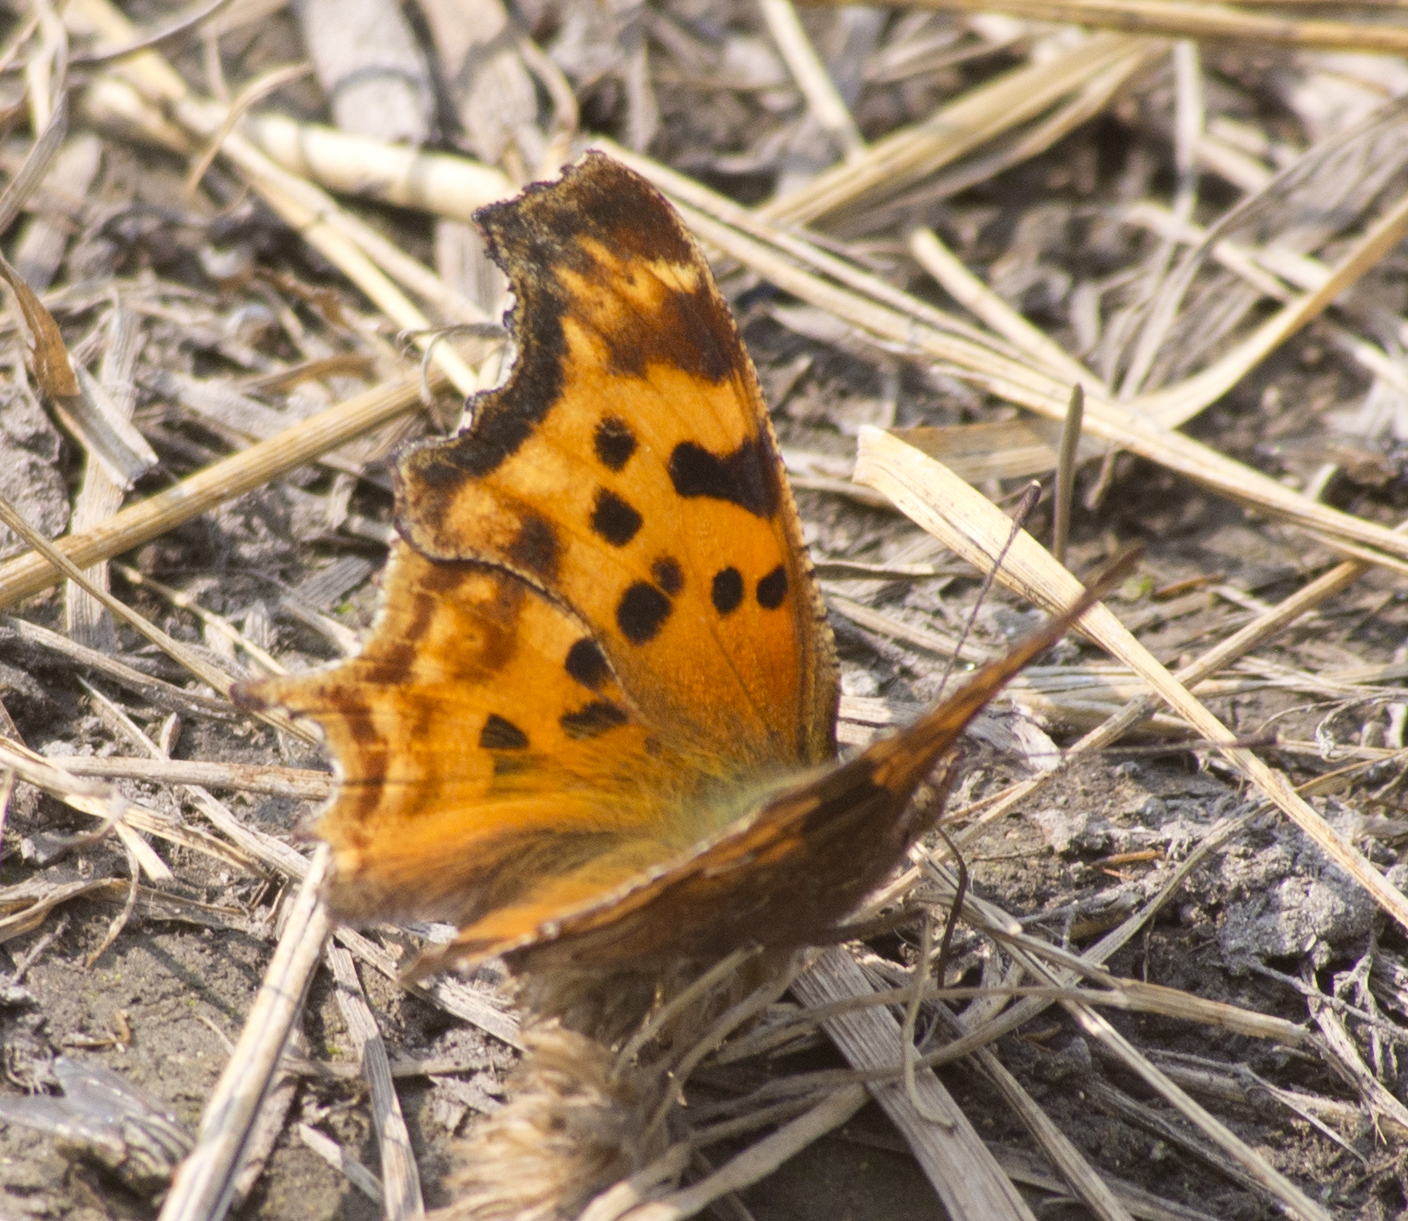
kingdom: Animalia
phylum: Arthropoda
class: Insecta
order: Lepidoptera
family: Nymphalidae
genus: Polygonia
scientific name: Polygonia satyrus
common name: Satyr angle wing
